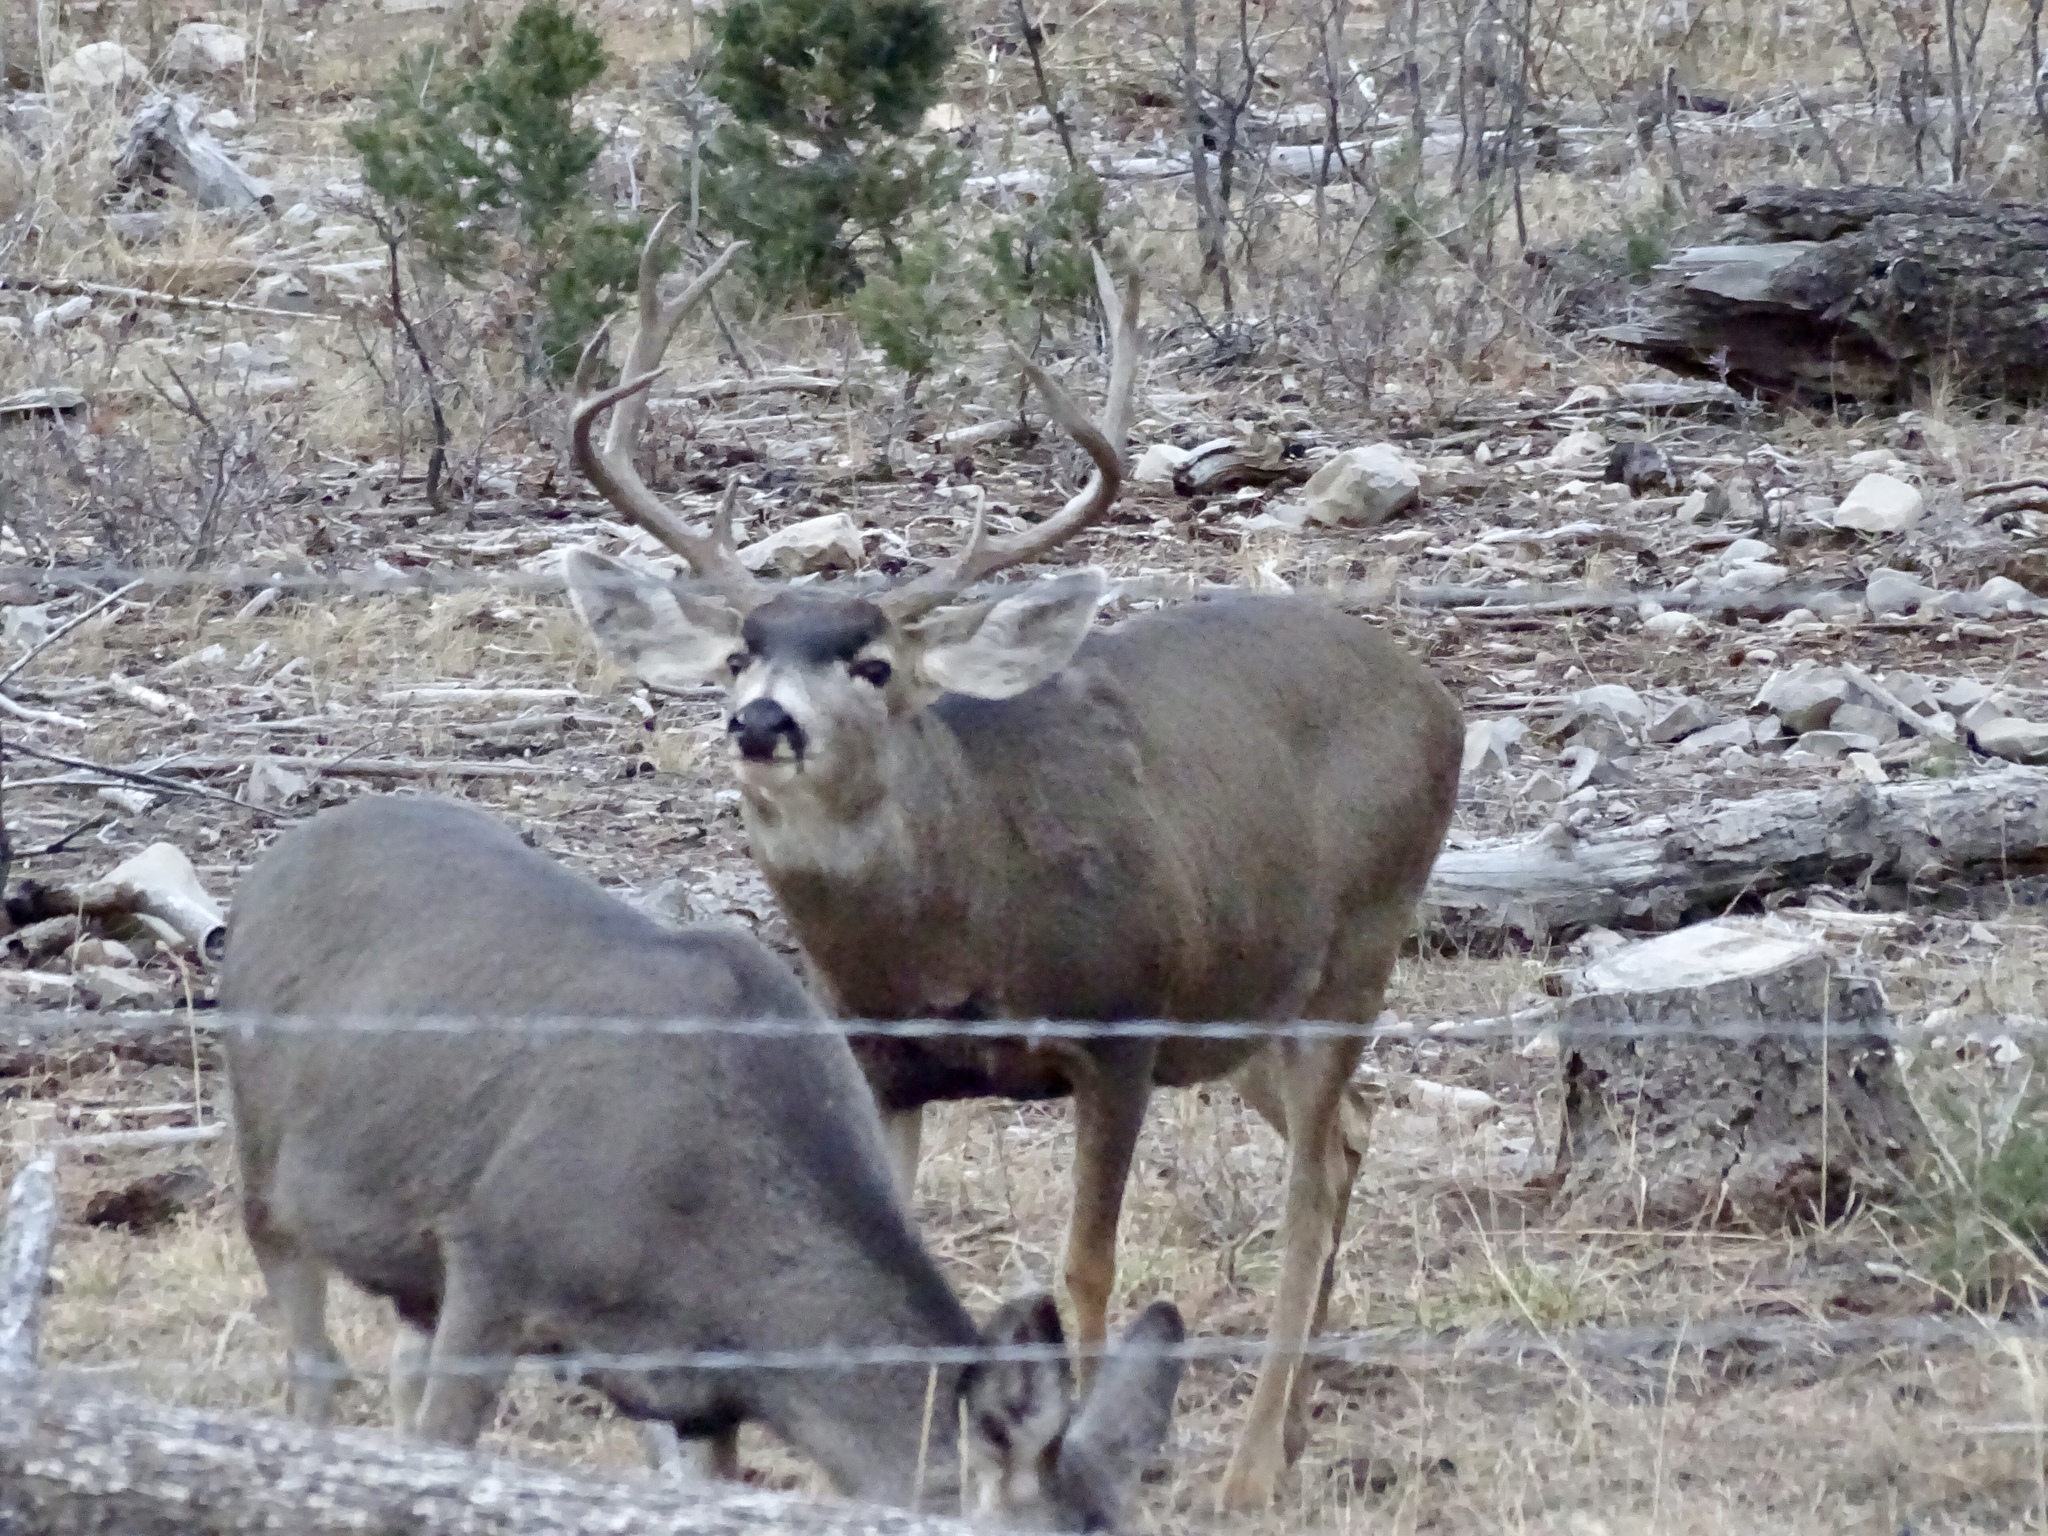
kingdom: Animalia
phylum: Chordata
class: Mammalia
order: Artiodactyla
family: Cervidae
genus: Odocoileus
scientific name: Odocoileus hemionus
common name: Mule deer
